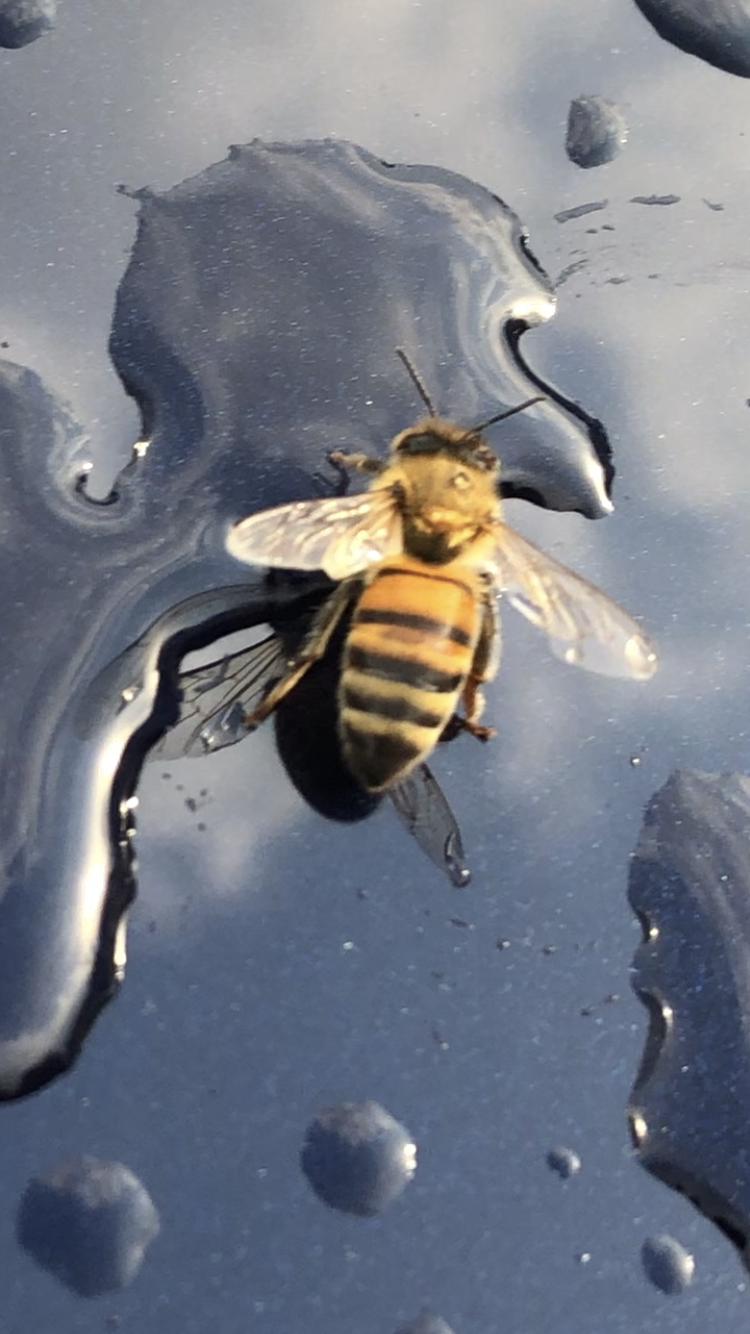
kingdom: Animalia
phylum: Arthropoda
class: Insecta
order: Hymenoptera
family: Apidae
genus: Apis
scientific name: Apis mellifera
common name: Honey bee
